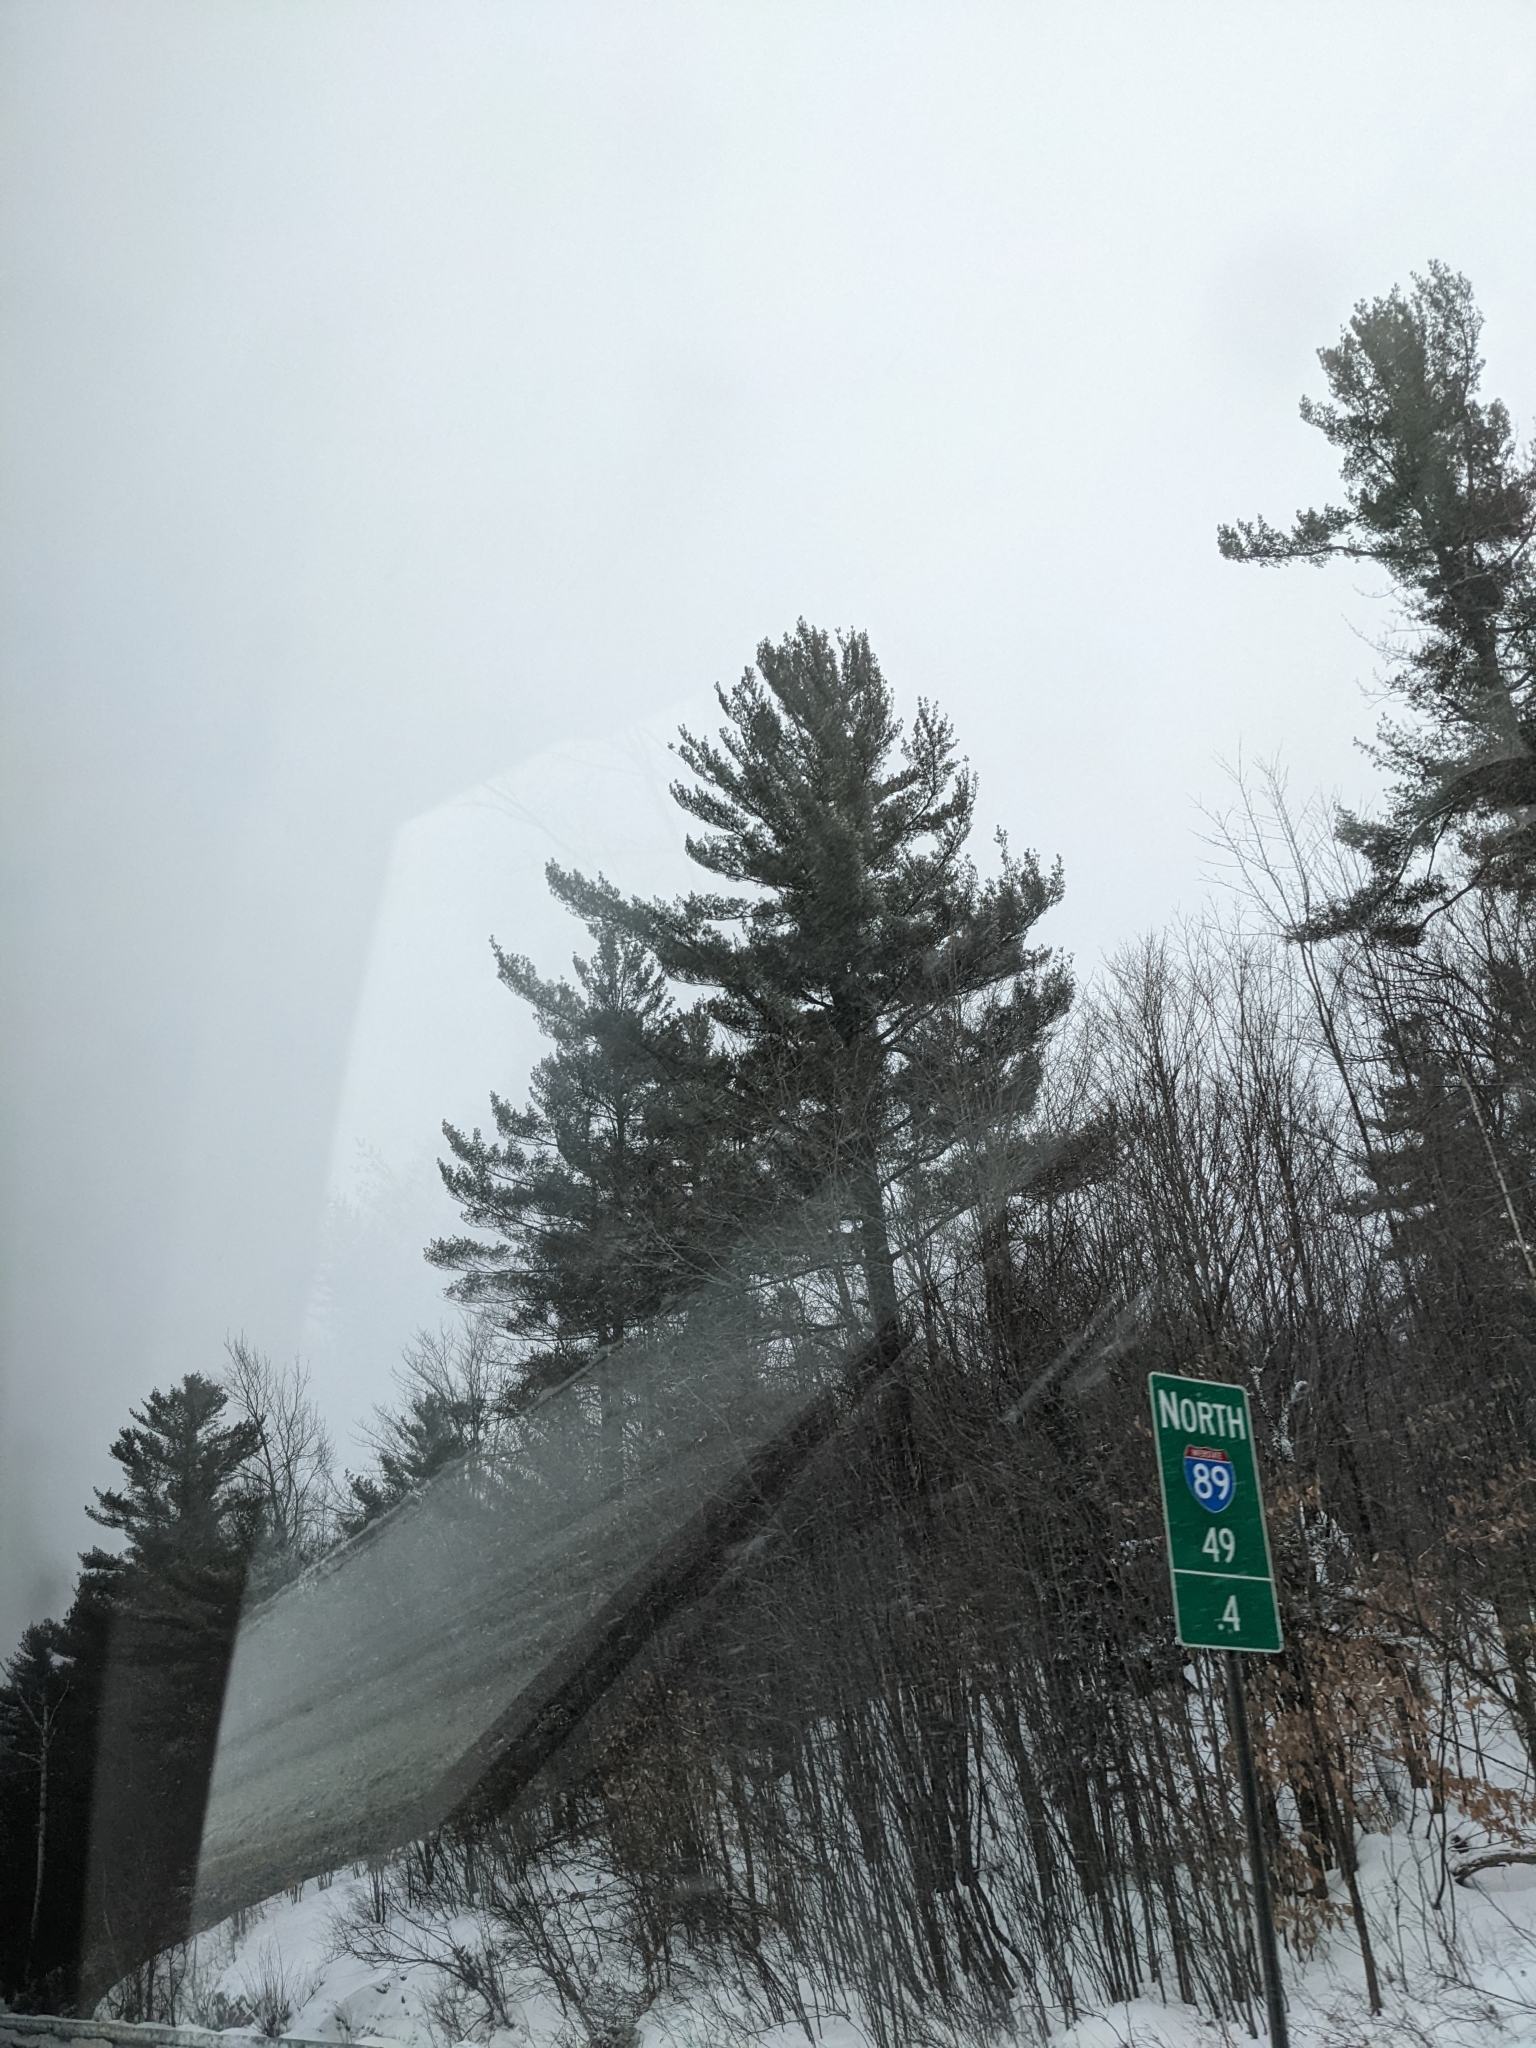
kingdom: Plantae
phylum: Tracheophyta
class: Pinopsida
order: Pinales
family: Pinaceae
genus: Pinus
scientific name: Pinus strobus
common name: Weymouth pine
